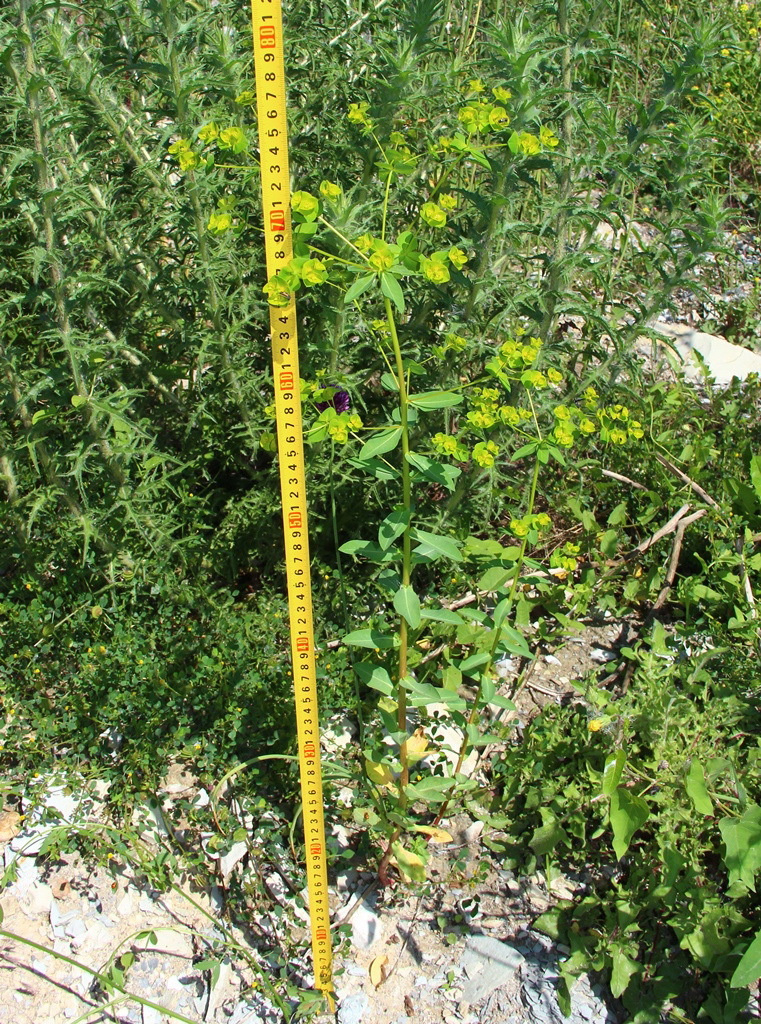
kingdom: Plantae
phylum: Tracheophyta
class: Magnoliopsida
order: Malpighiales
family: Euphorbiaceae
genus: Euphorbia
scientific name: Euphorbia platyphyllos
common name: Broad-leaved spurge
